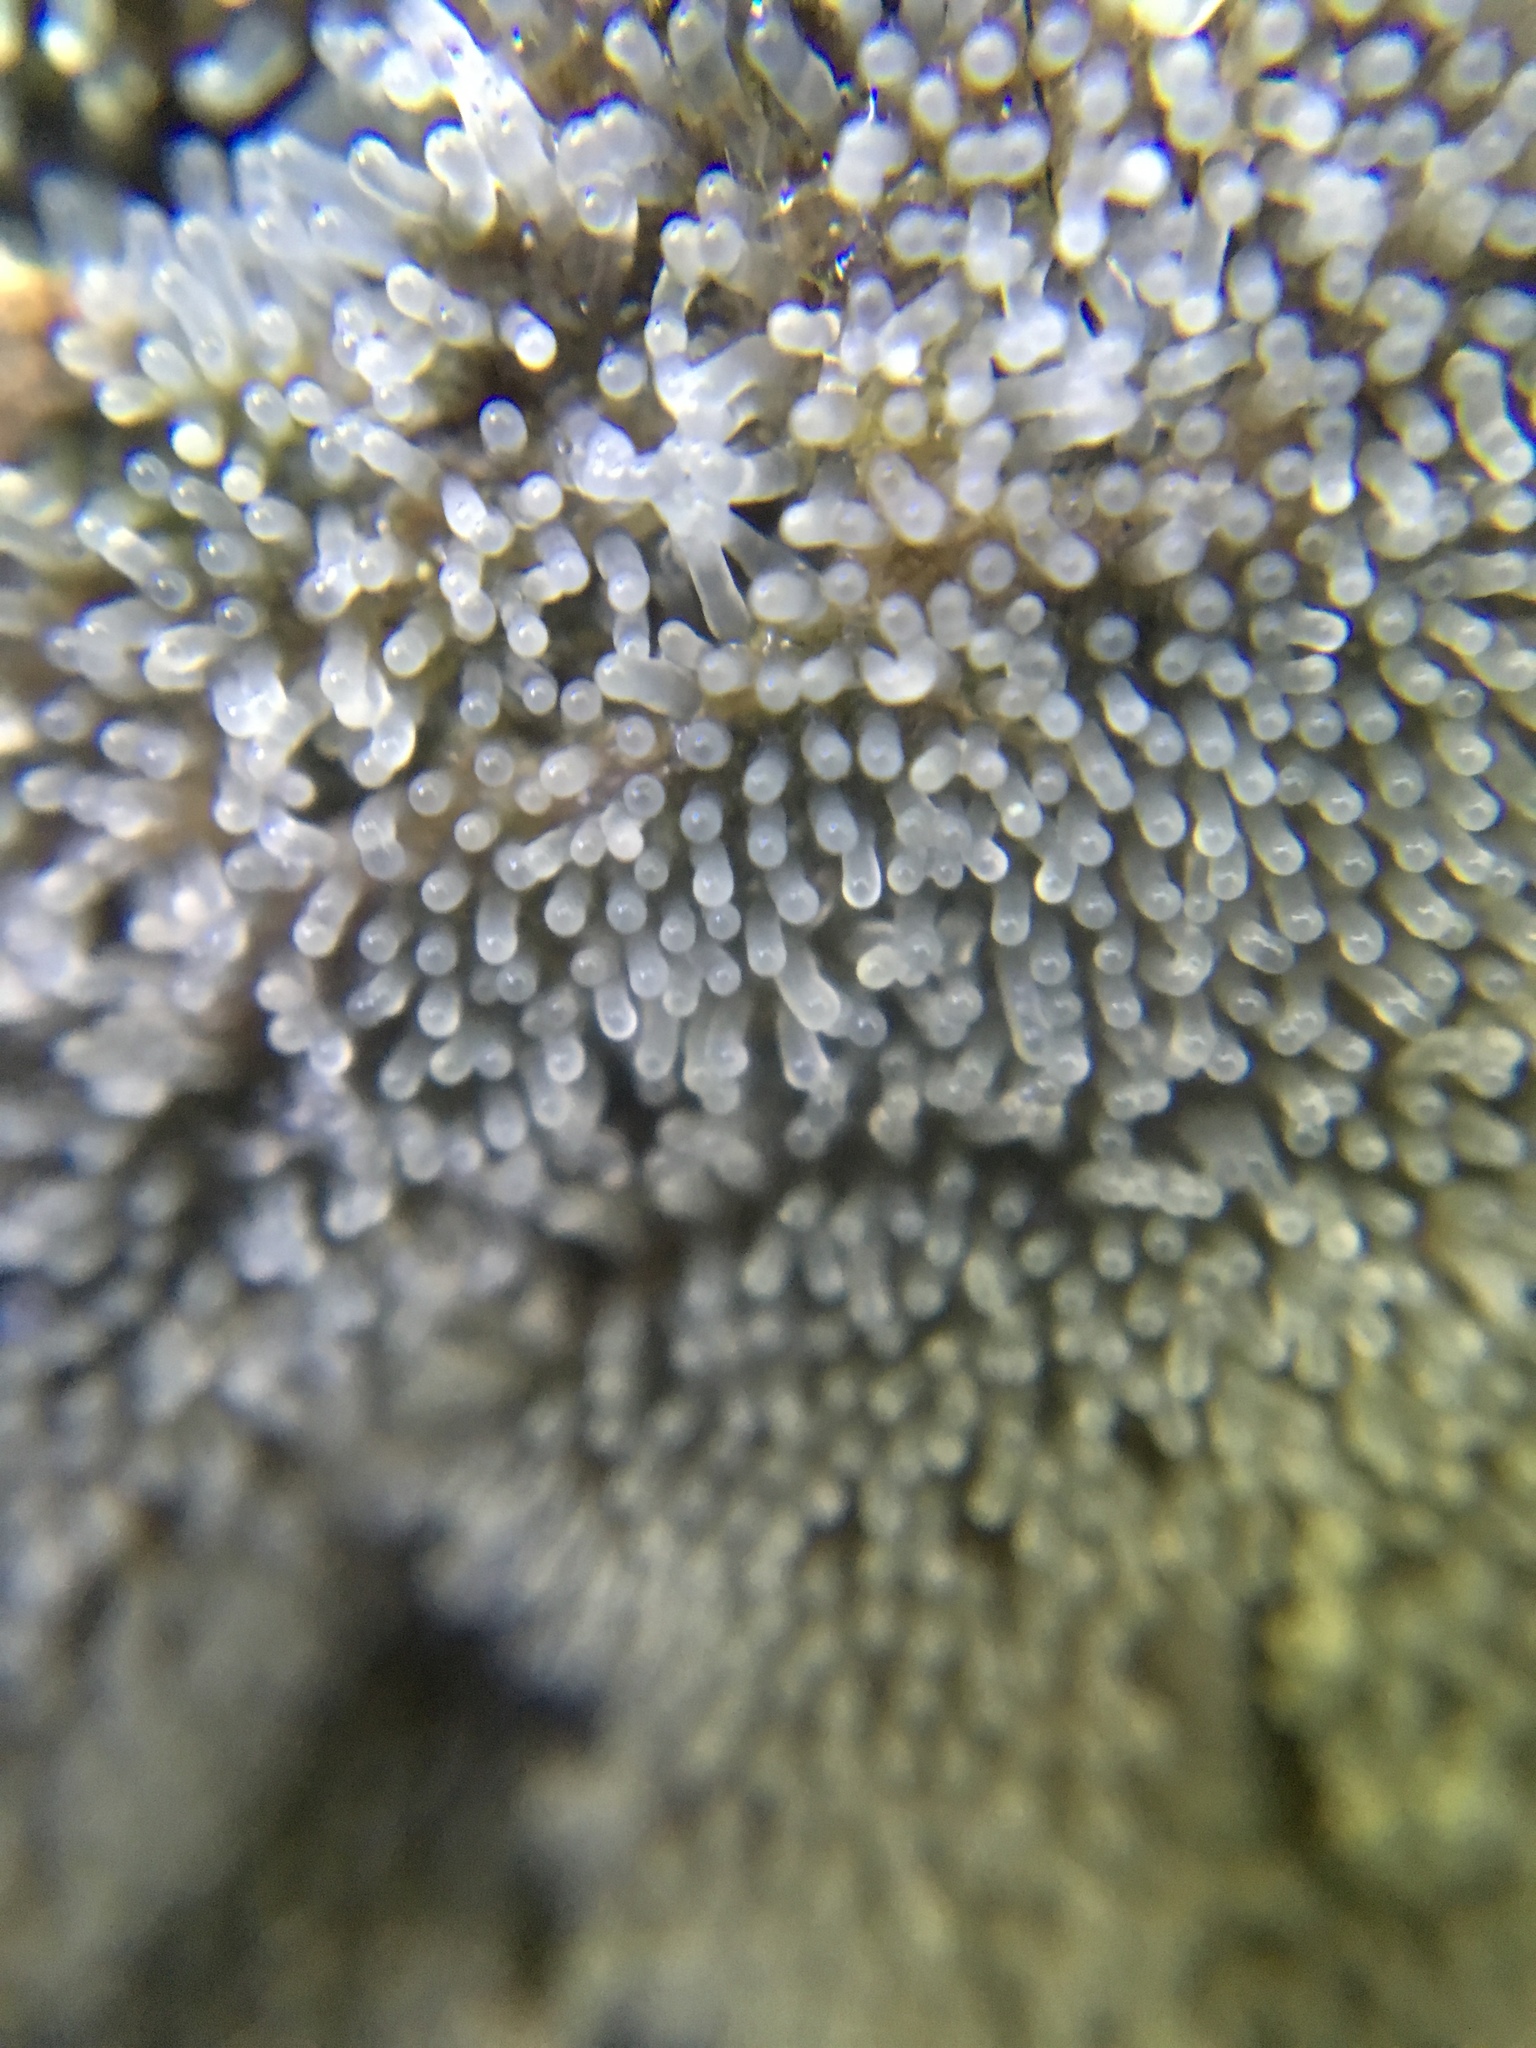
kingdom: Protozoa
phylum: Mycetozoa
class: Protosteliomycetes
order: Ceratiomyxales
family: Ceratiomyxaceae
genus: Ceratiomyxa
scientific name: Ceratiomyxa fruticulosa
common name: Honeycomb coral slime mold
